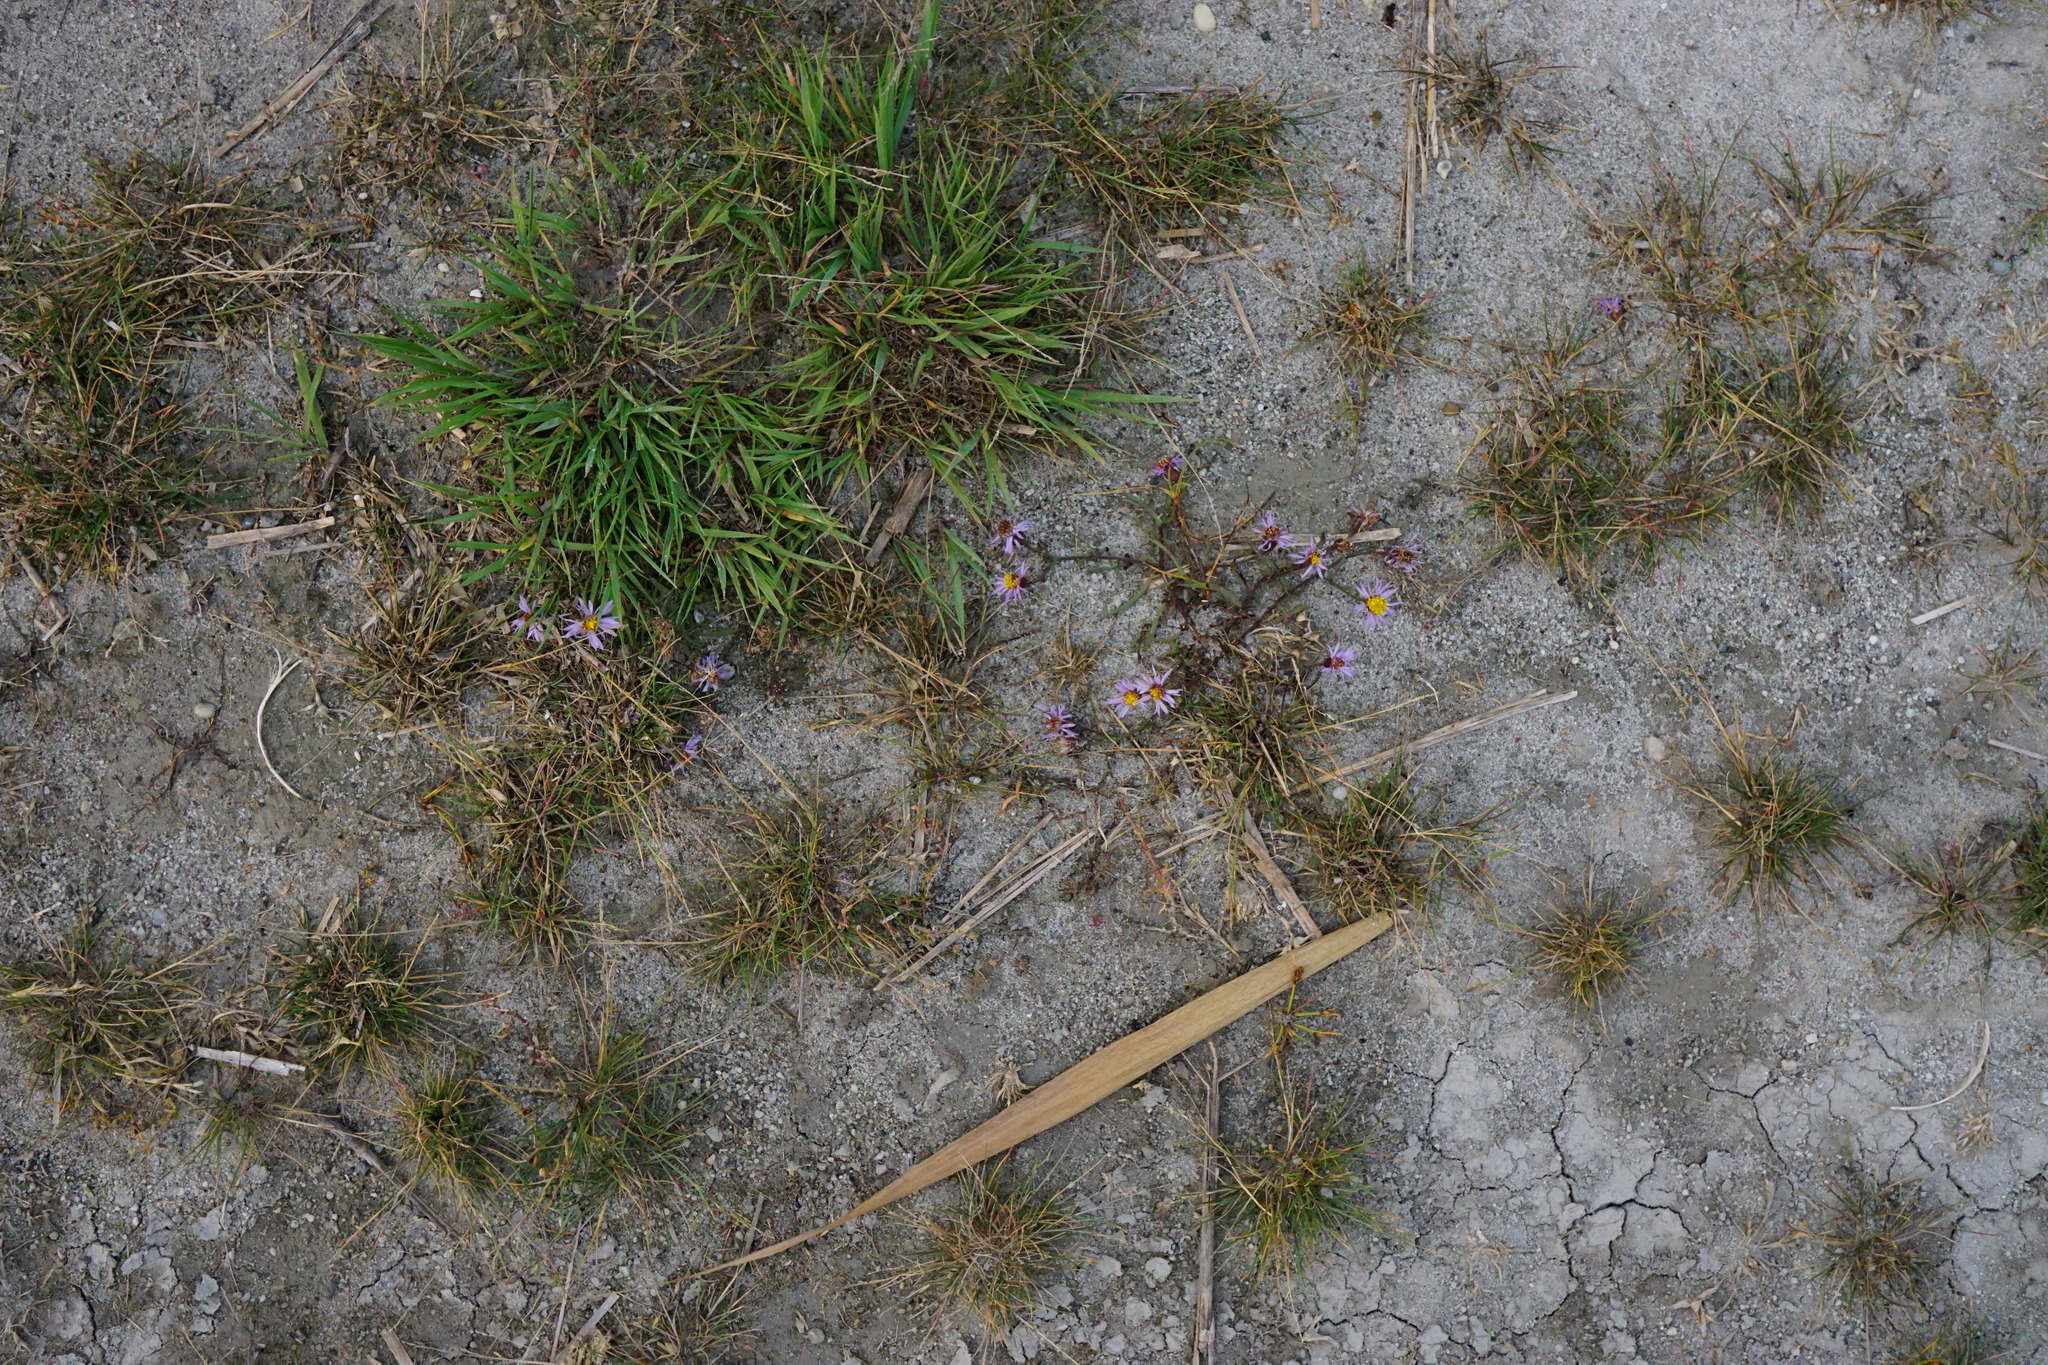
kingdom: Plantae
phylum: Tracheophyta
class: Magnoliopsida
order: Asterales
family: Asteraceae
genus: Tripolium
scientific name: Tripolium pannonicum
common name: Sea aster
